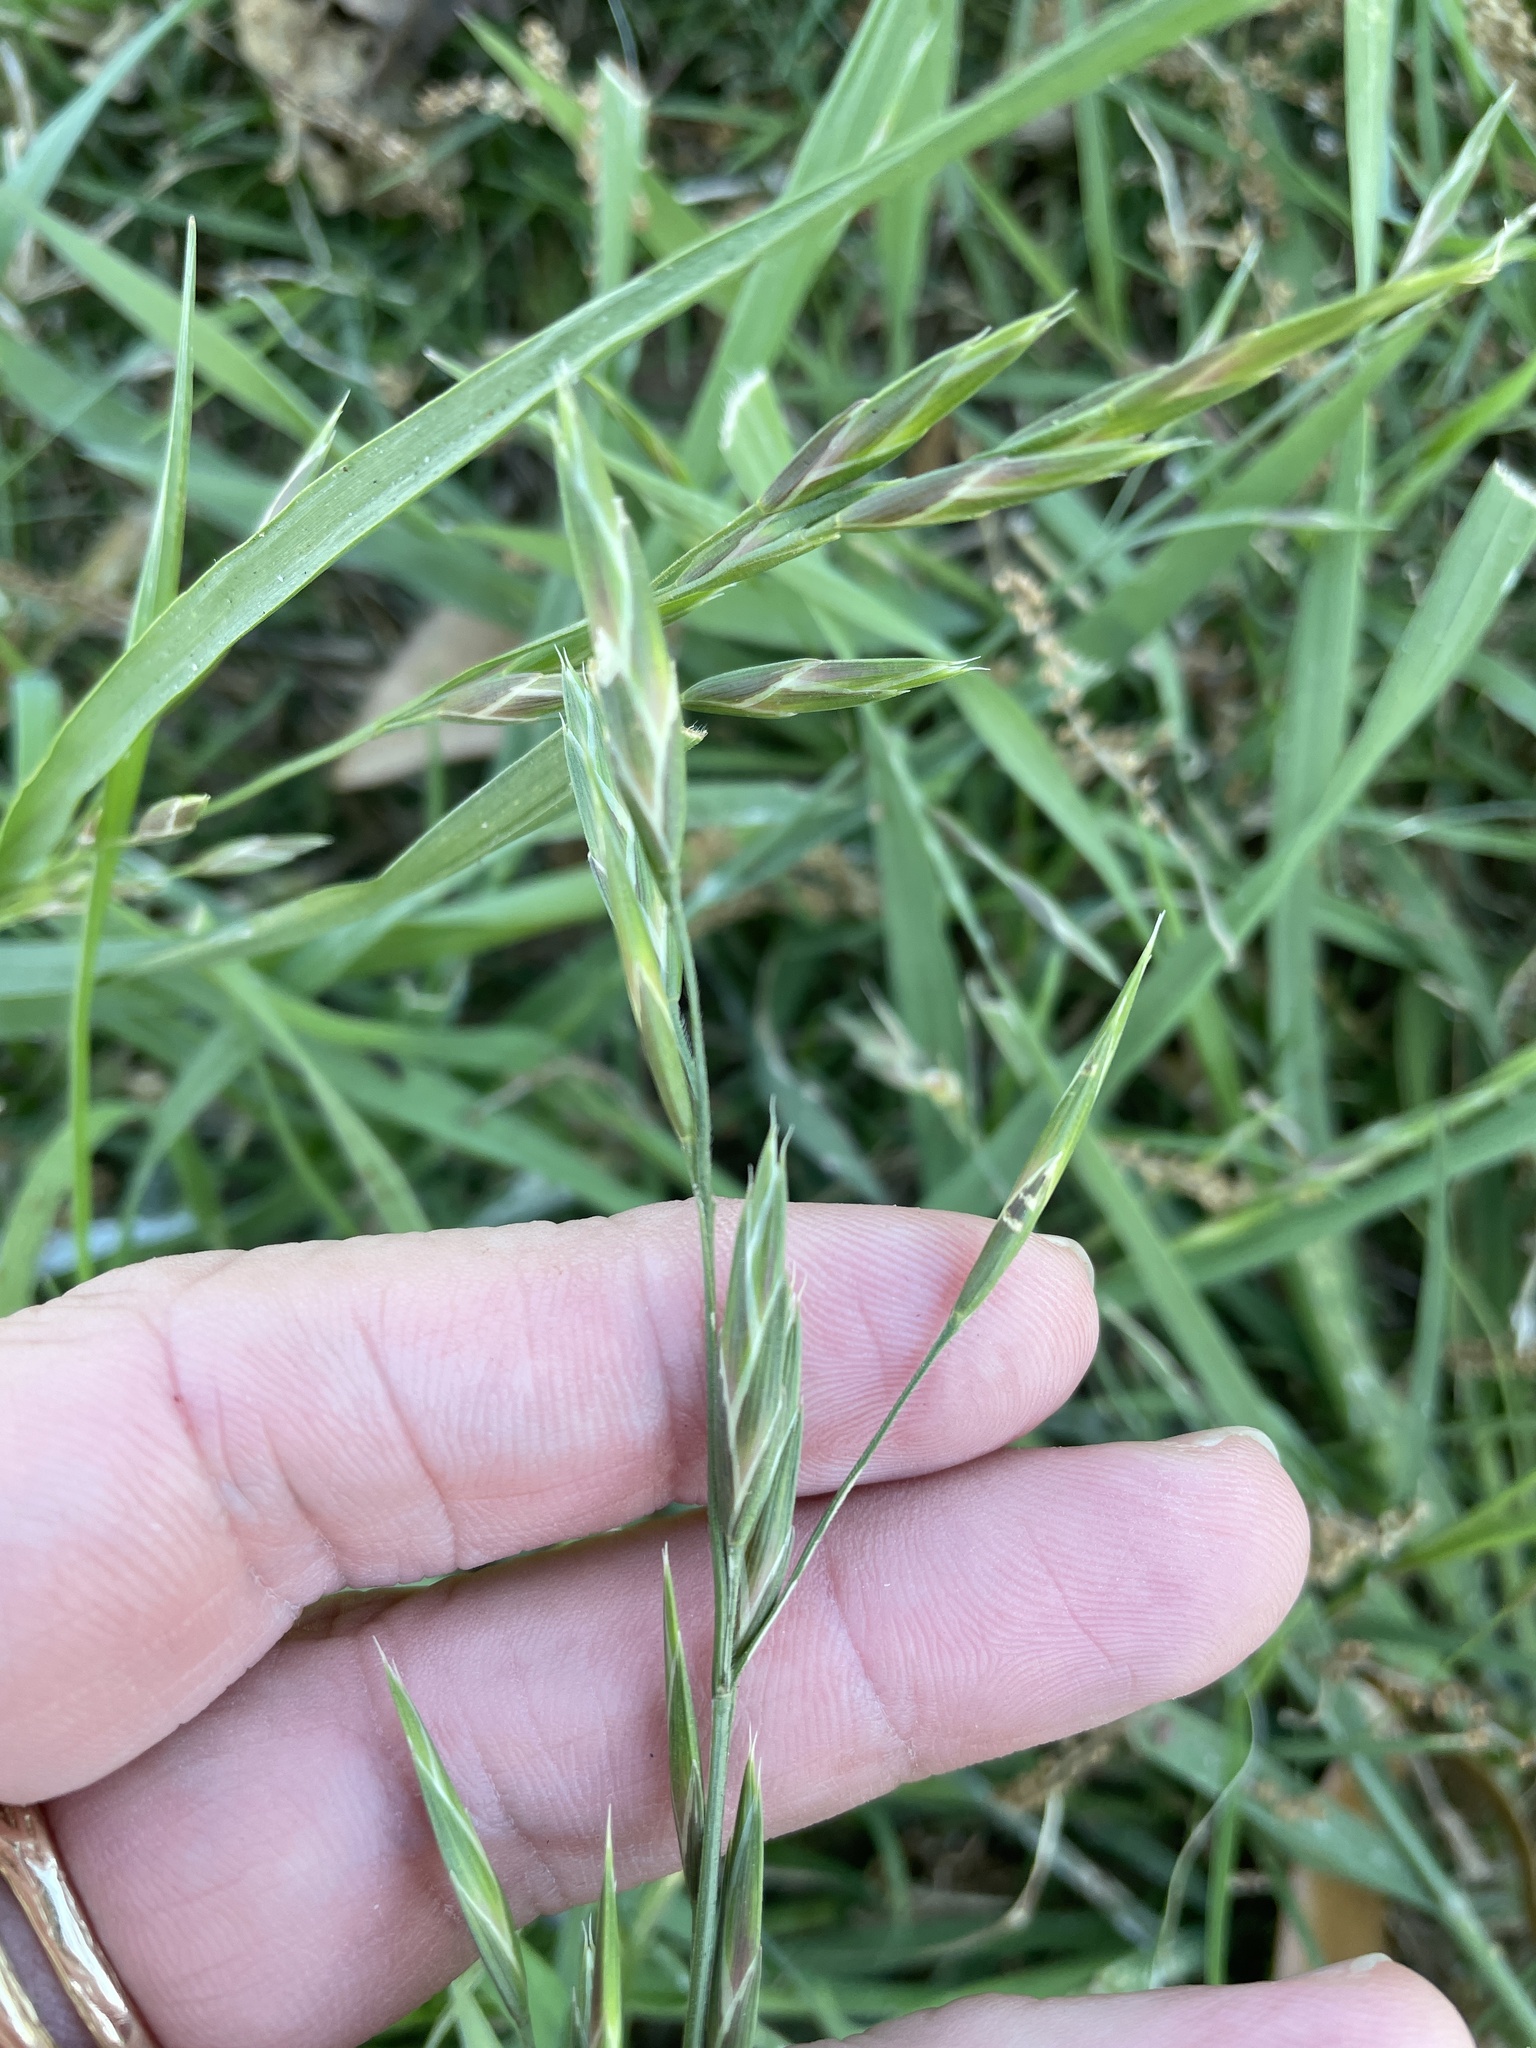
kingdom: Plantae
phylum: Tracheophyta
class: Liliopsida
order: Poales
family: Poaceae
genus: Bromus
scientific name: Bromus catharticus
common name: Rescuegrass
